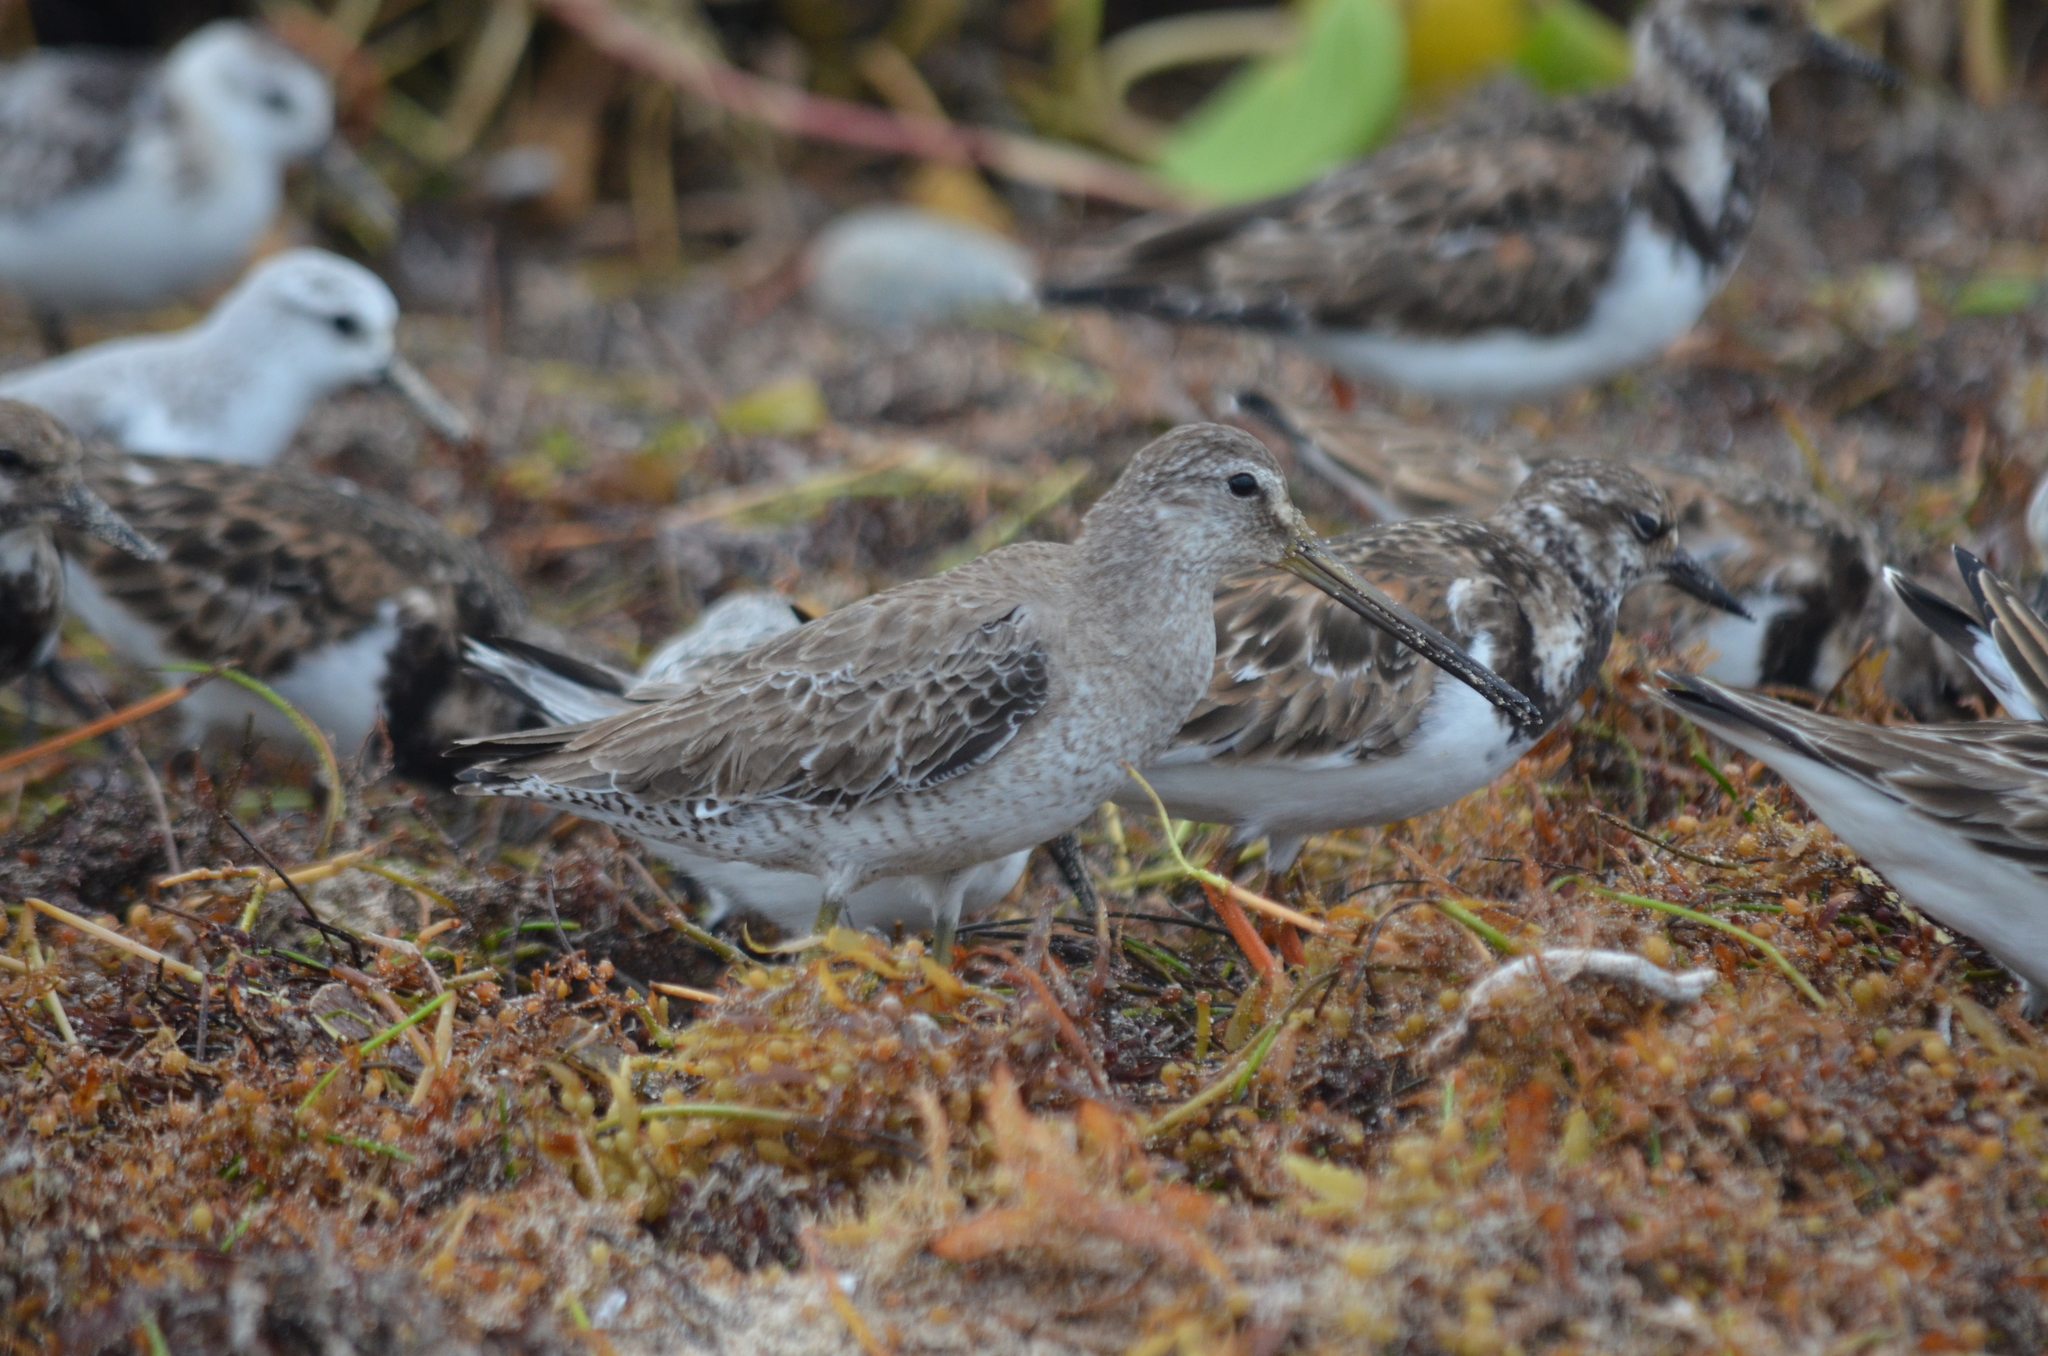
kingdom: Animalia
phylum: Chordata
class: Aves
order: Charadriiformes
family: Scolopacidae
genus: Limnodromus
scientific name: Limnodromus griseus
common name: Short-billed dowitcher
